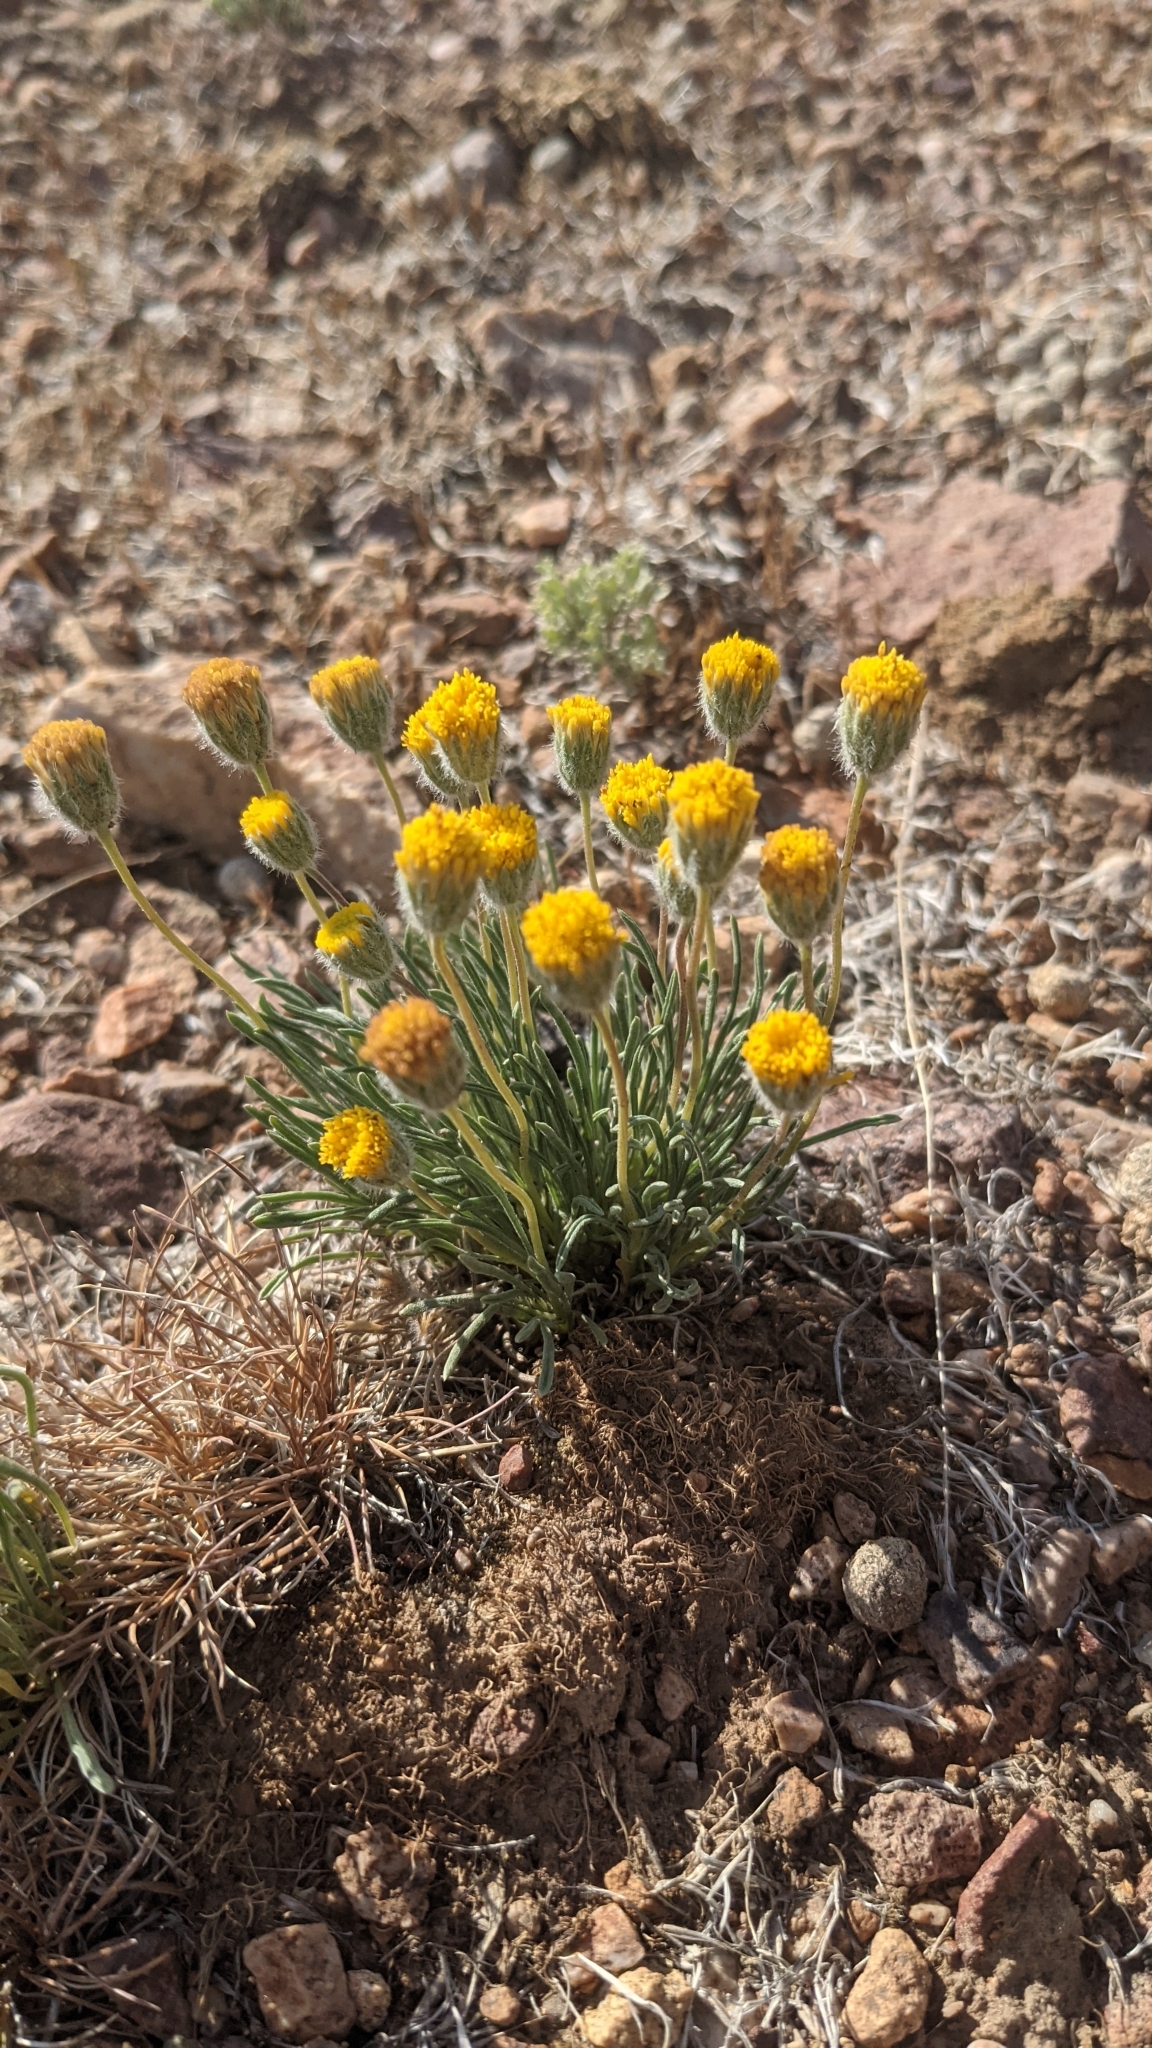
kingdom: Plantae
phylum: Tracheophyta
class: Magnoliopsida
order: Asterales
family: Asteraceae
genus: Erigeron
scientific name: Erigeron bloomeri
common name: Bloomer's fleabane
